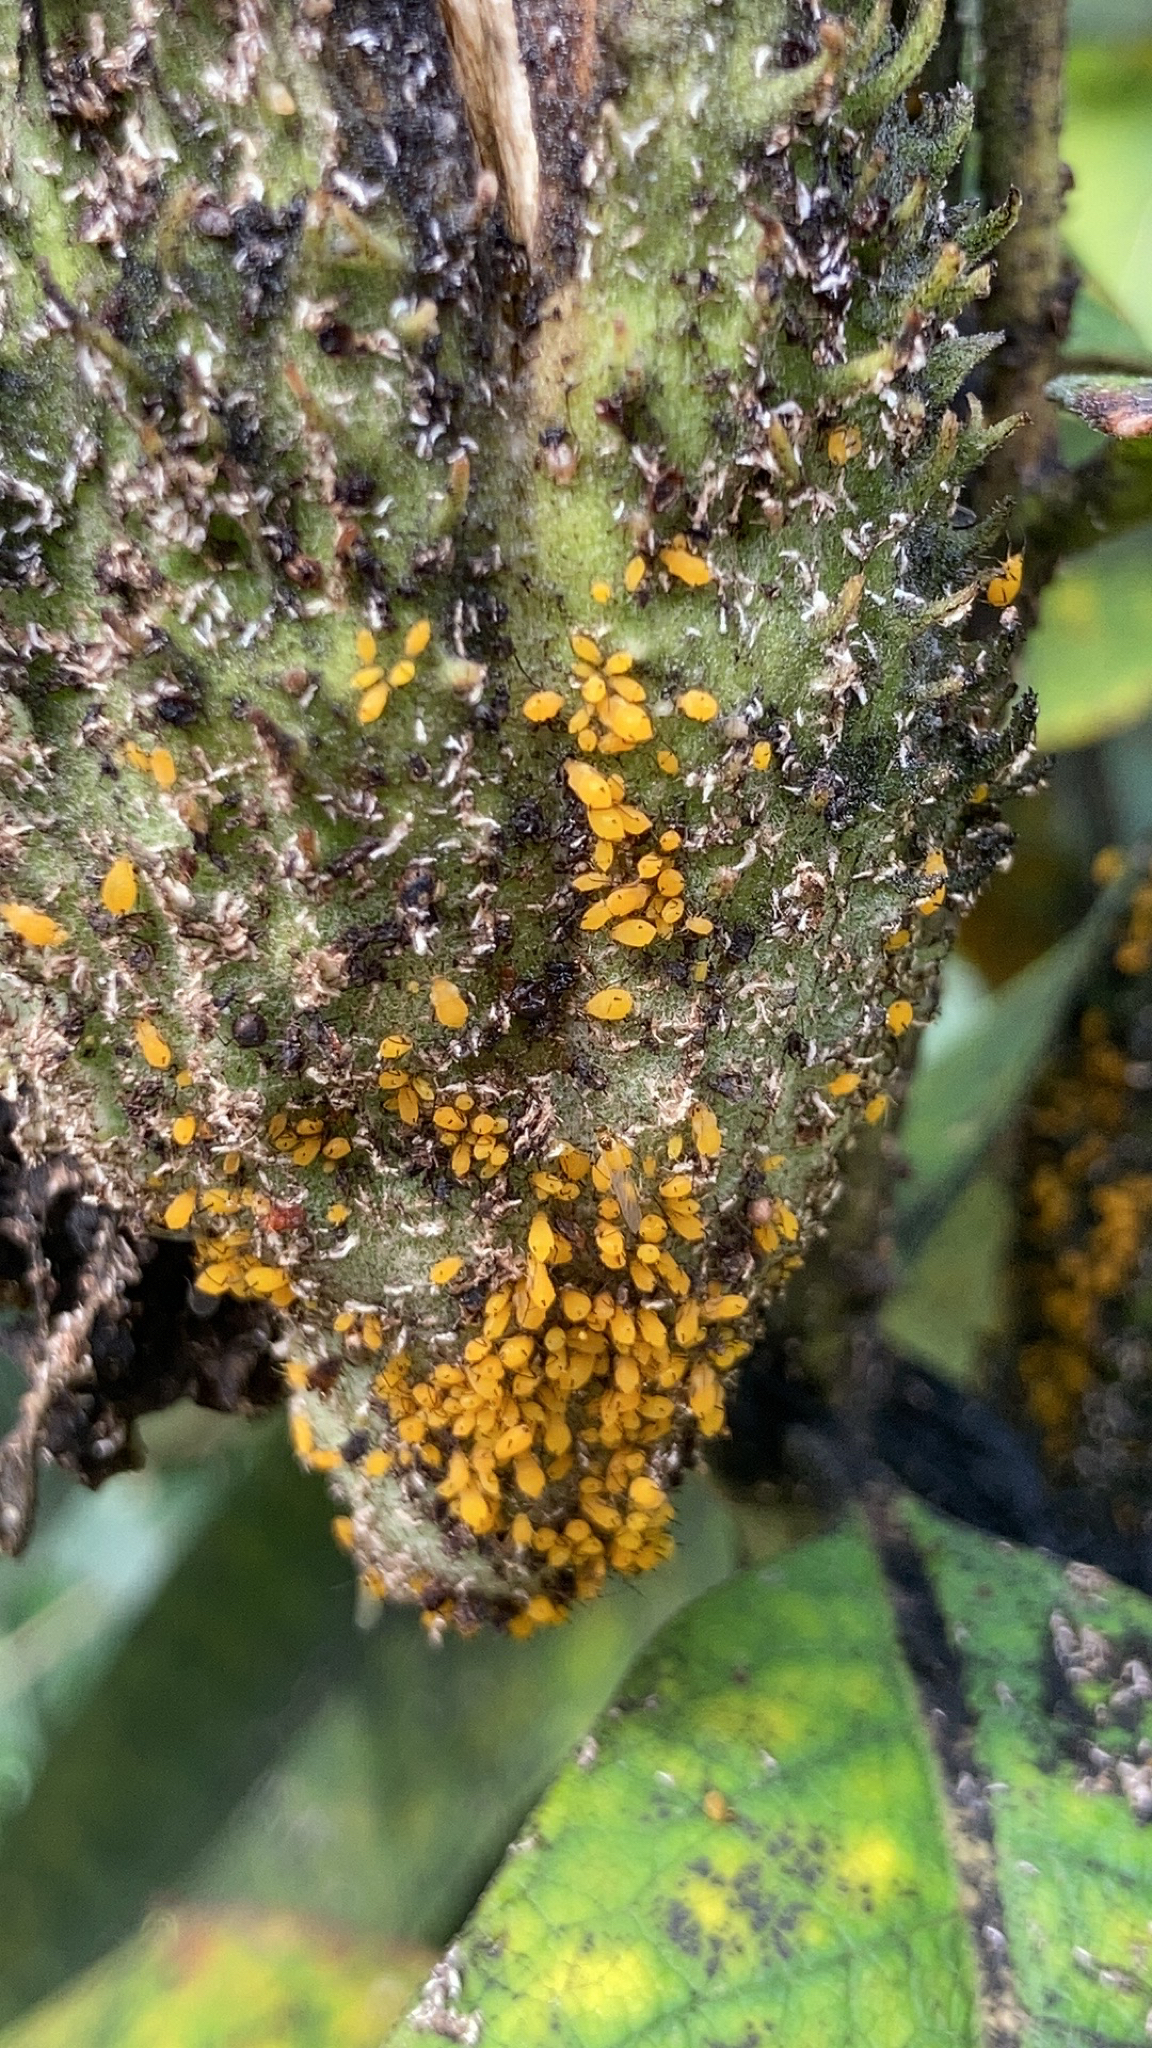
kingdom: Animalia
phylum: Arthropoda
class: Insecta
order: Hemiptera
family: Aphididae
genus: Aphis
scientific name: Aphis nerii
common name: Oleander aphid
